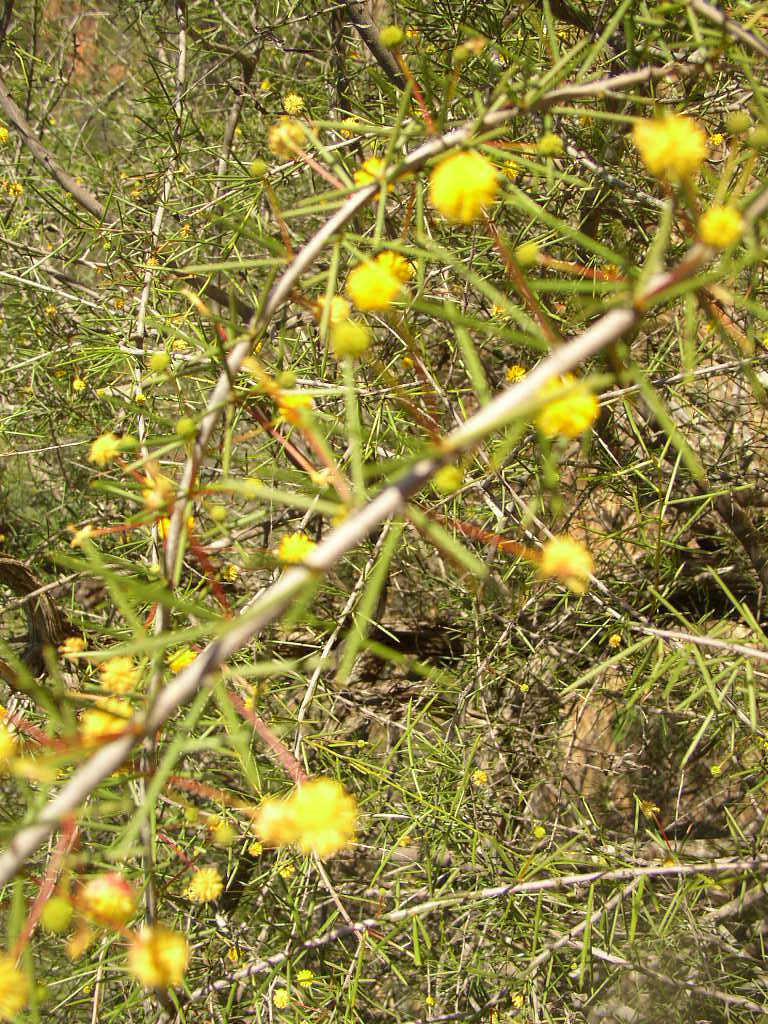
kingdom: Plantae
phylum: Tracheophyta
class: Magnoliopsida
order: Fabales
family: Fabaceae
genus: Acacia
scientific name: Acacia tetragonophylla
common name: Dead finish
